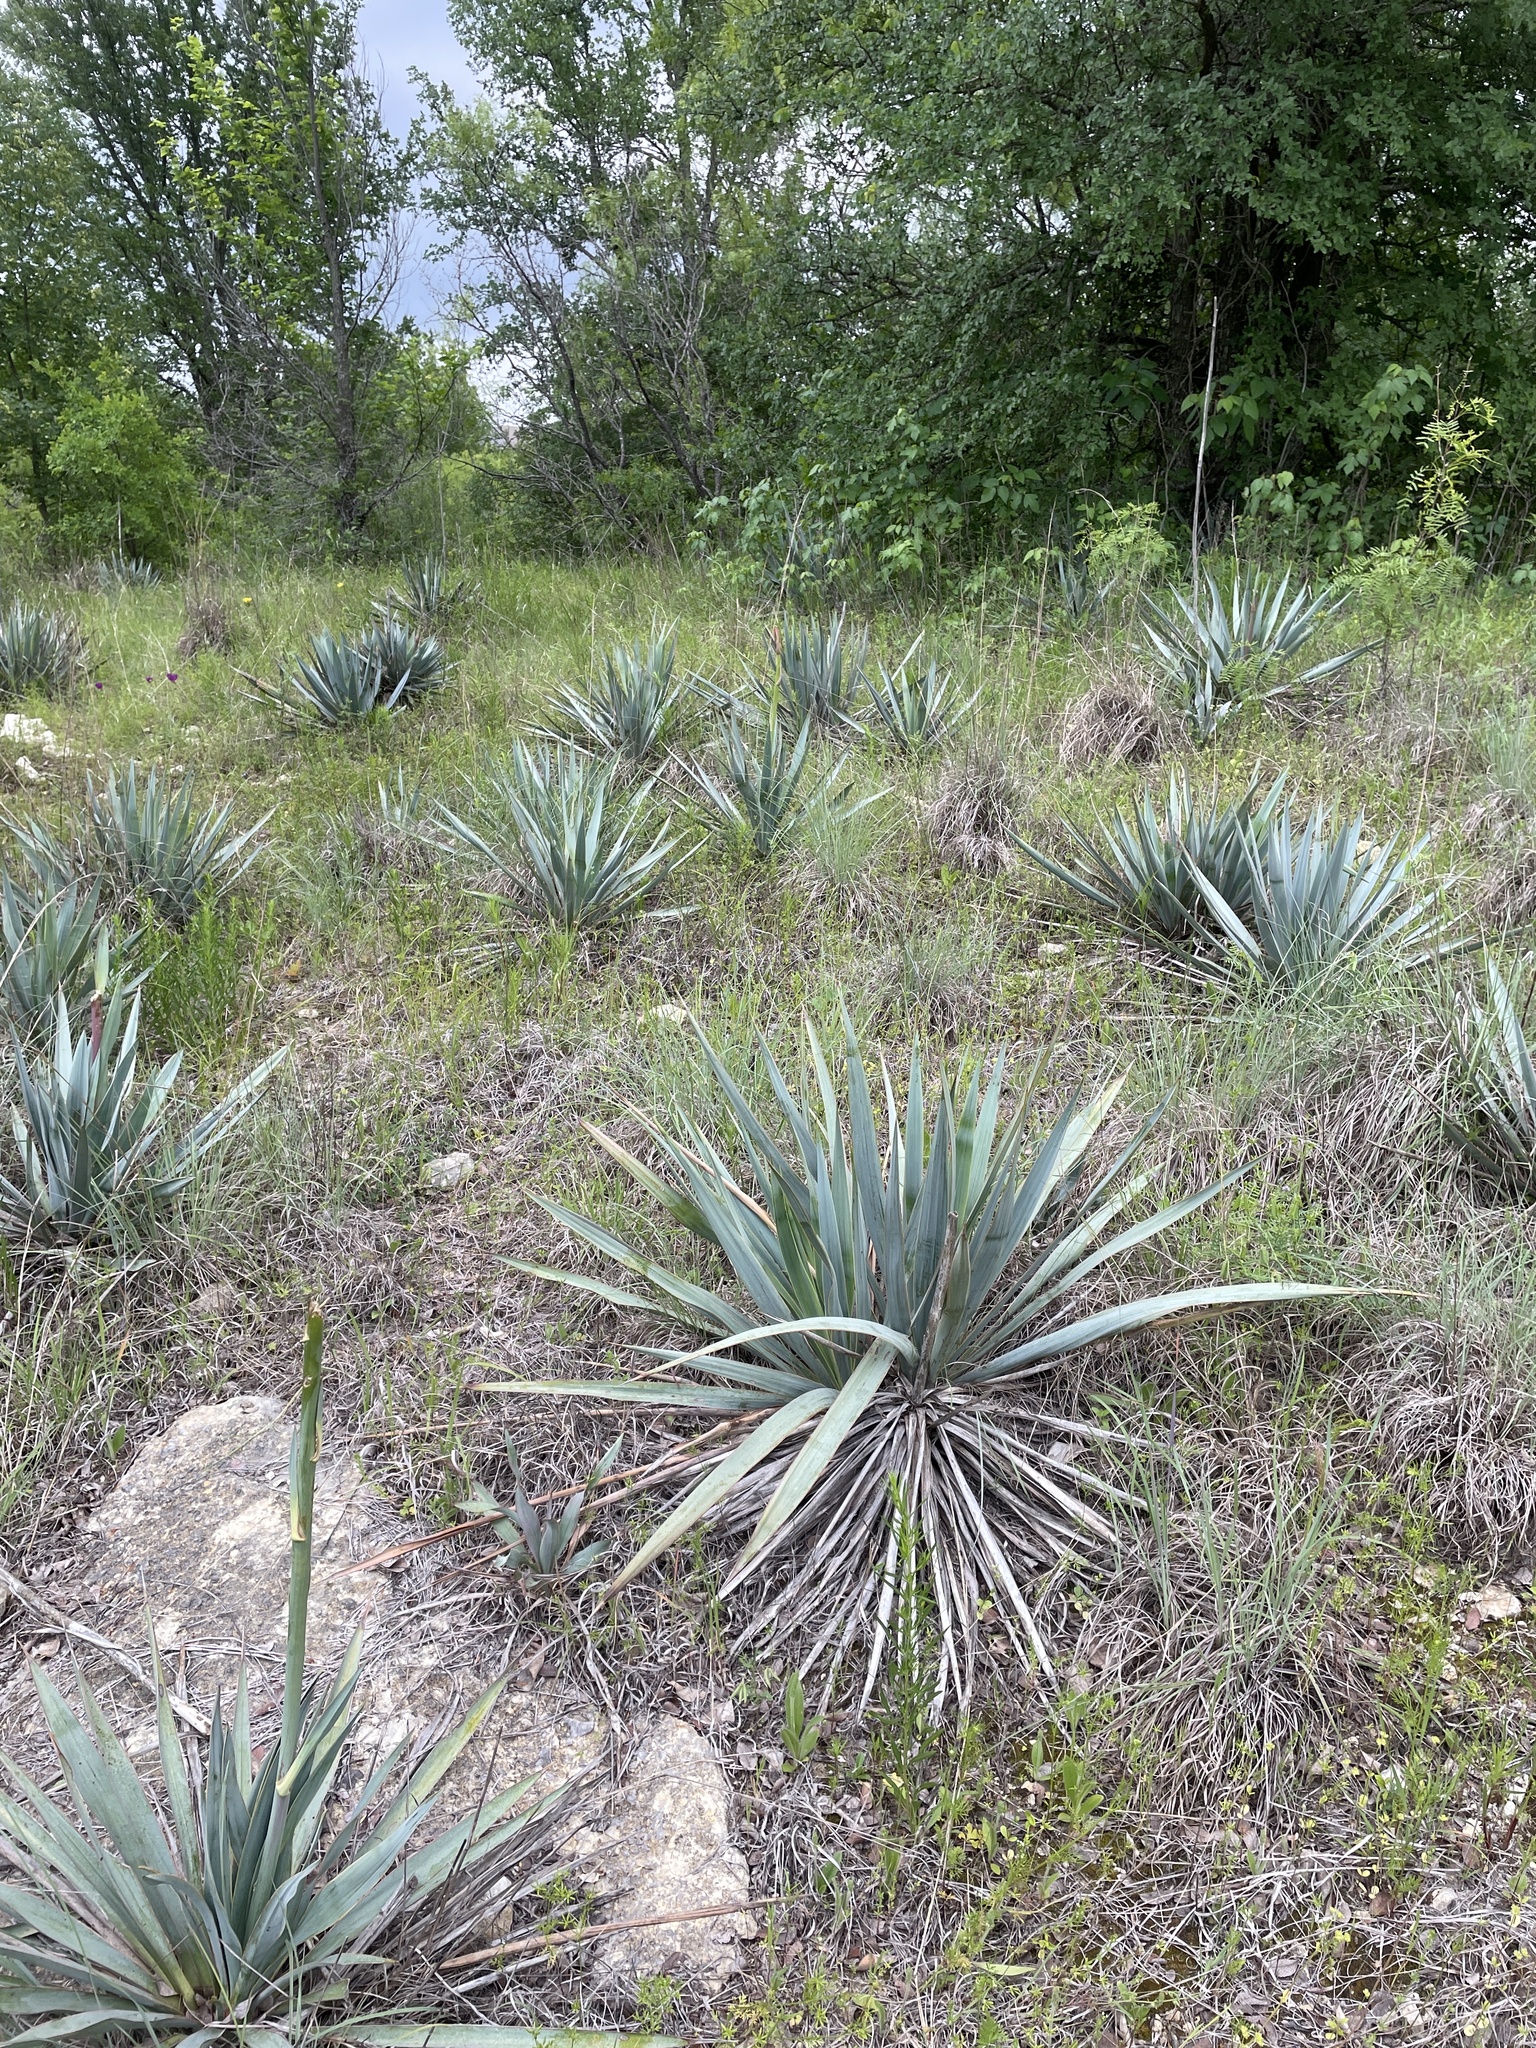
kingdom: Plantae
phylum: Tracheophyta
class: Liliopsida
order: Asparagales
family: Asparagaceae
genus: Yucca
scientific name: Yucca pallida
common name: Pale leaf yucca
